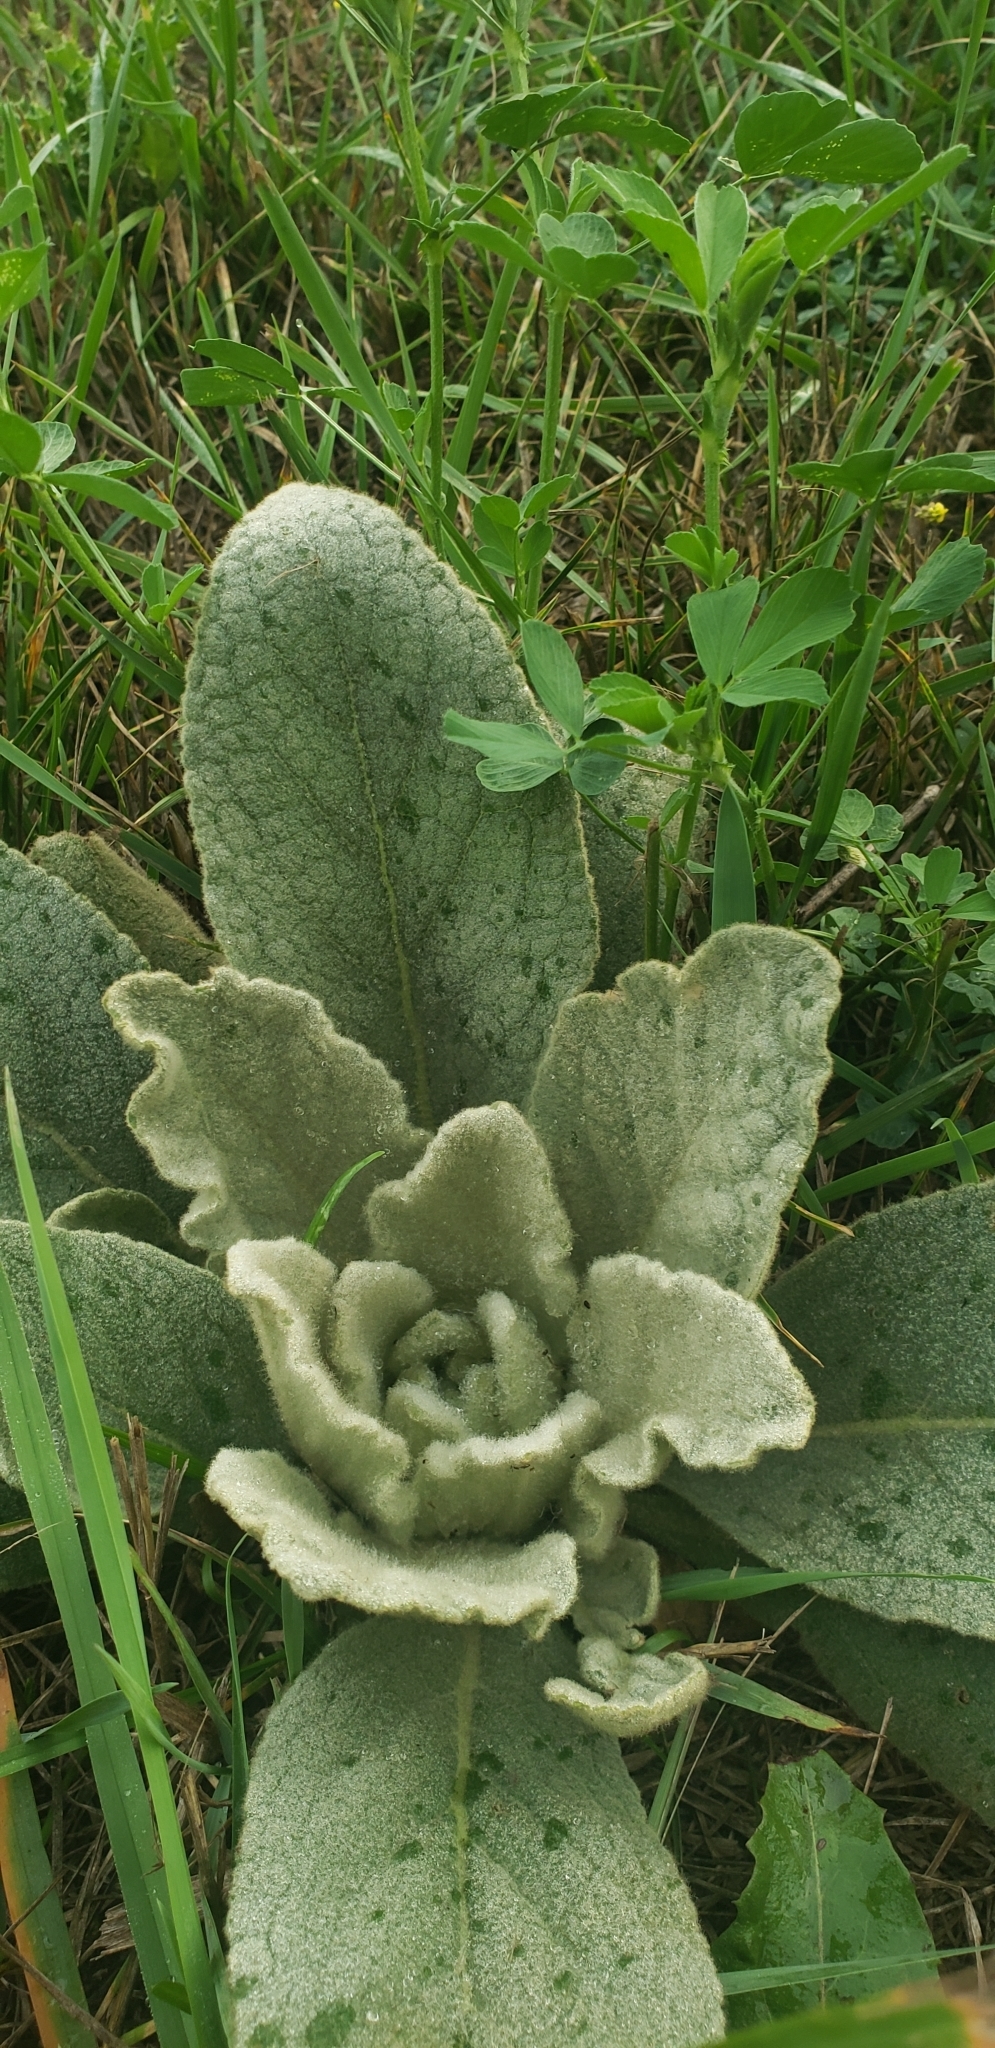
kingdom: Plantae
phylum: Tracheophyta
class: Magnoliopsida
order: Lamiales
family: Scrophulariaceae
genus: Verbascum
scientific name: Verbascum thapsus
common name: Common mullein
